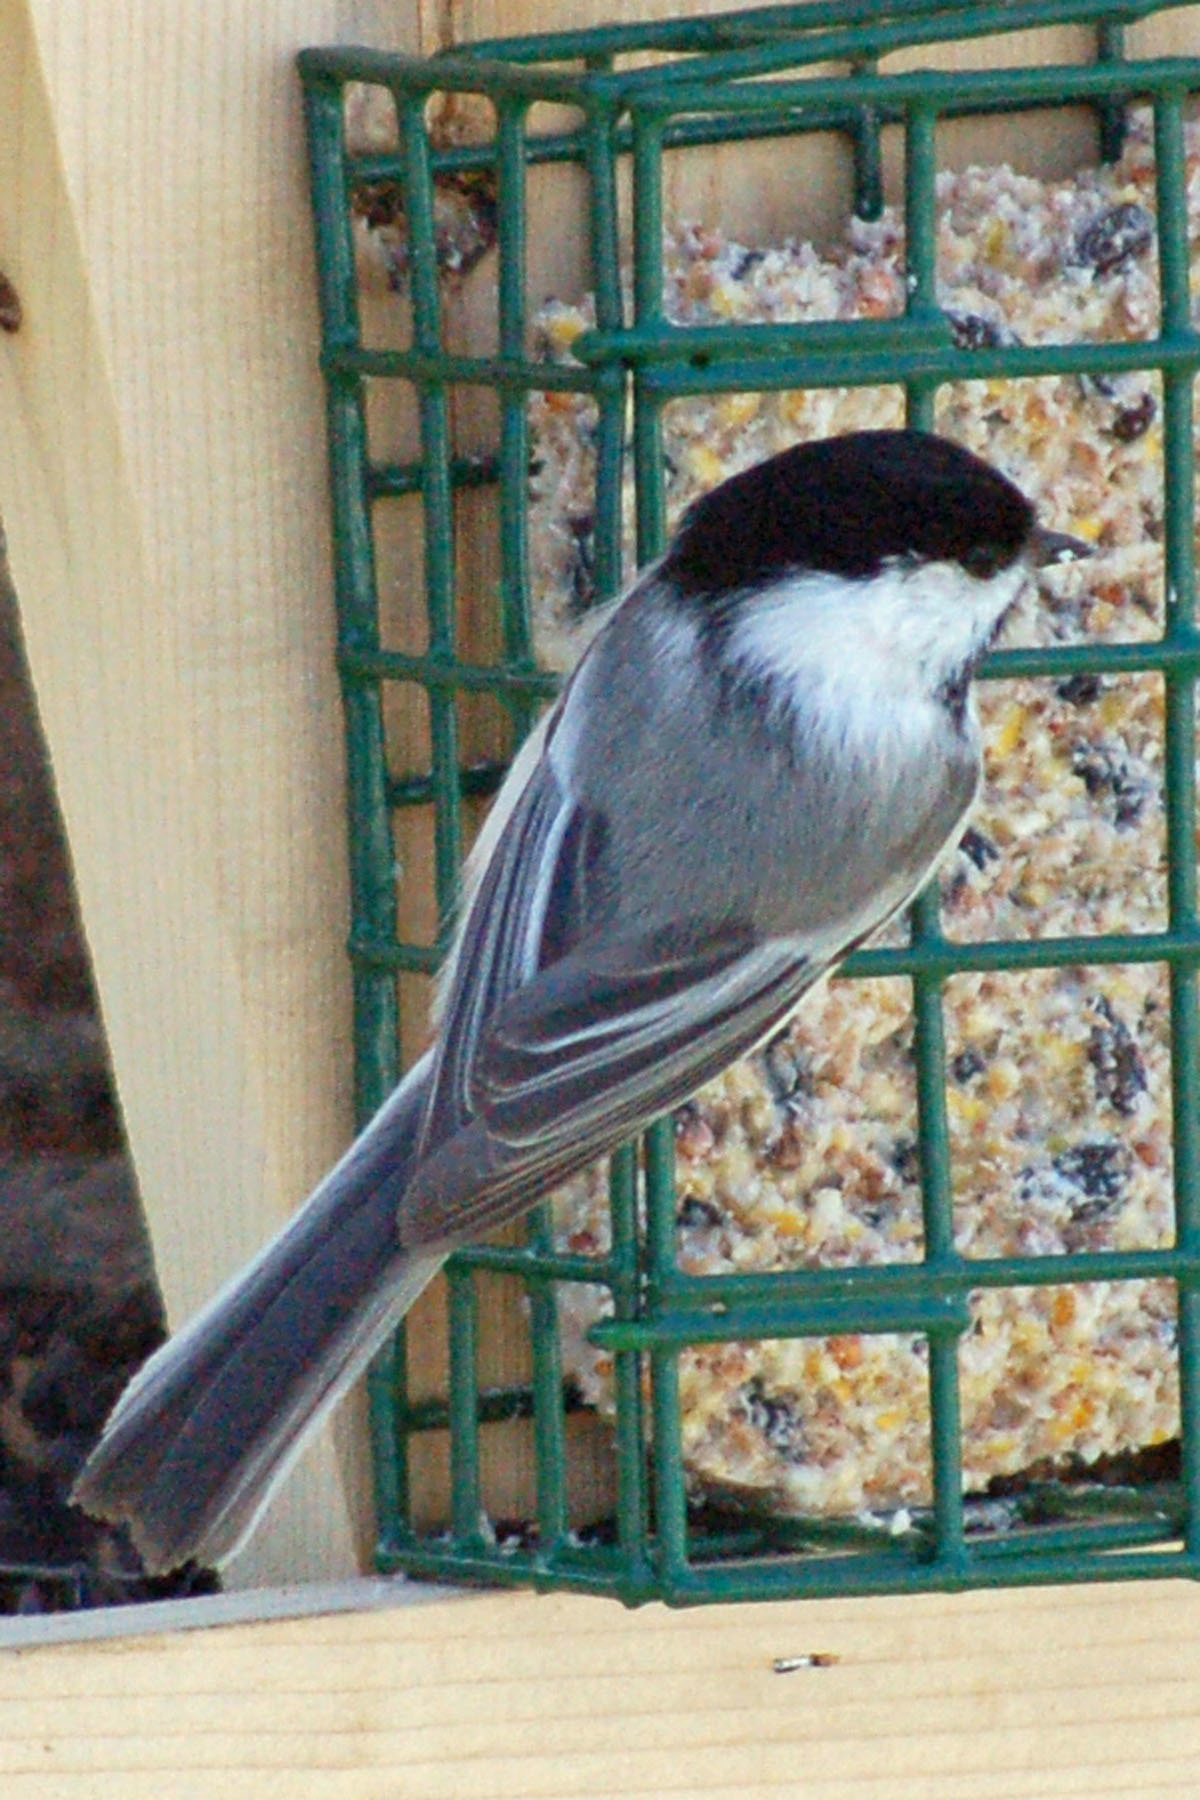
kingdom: Animalia
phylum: Chordata
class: Aves
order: Passeriformes
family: Paridae
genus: Poecile
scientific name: Poecile atricapillus
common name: Black-capped chickadee
